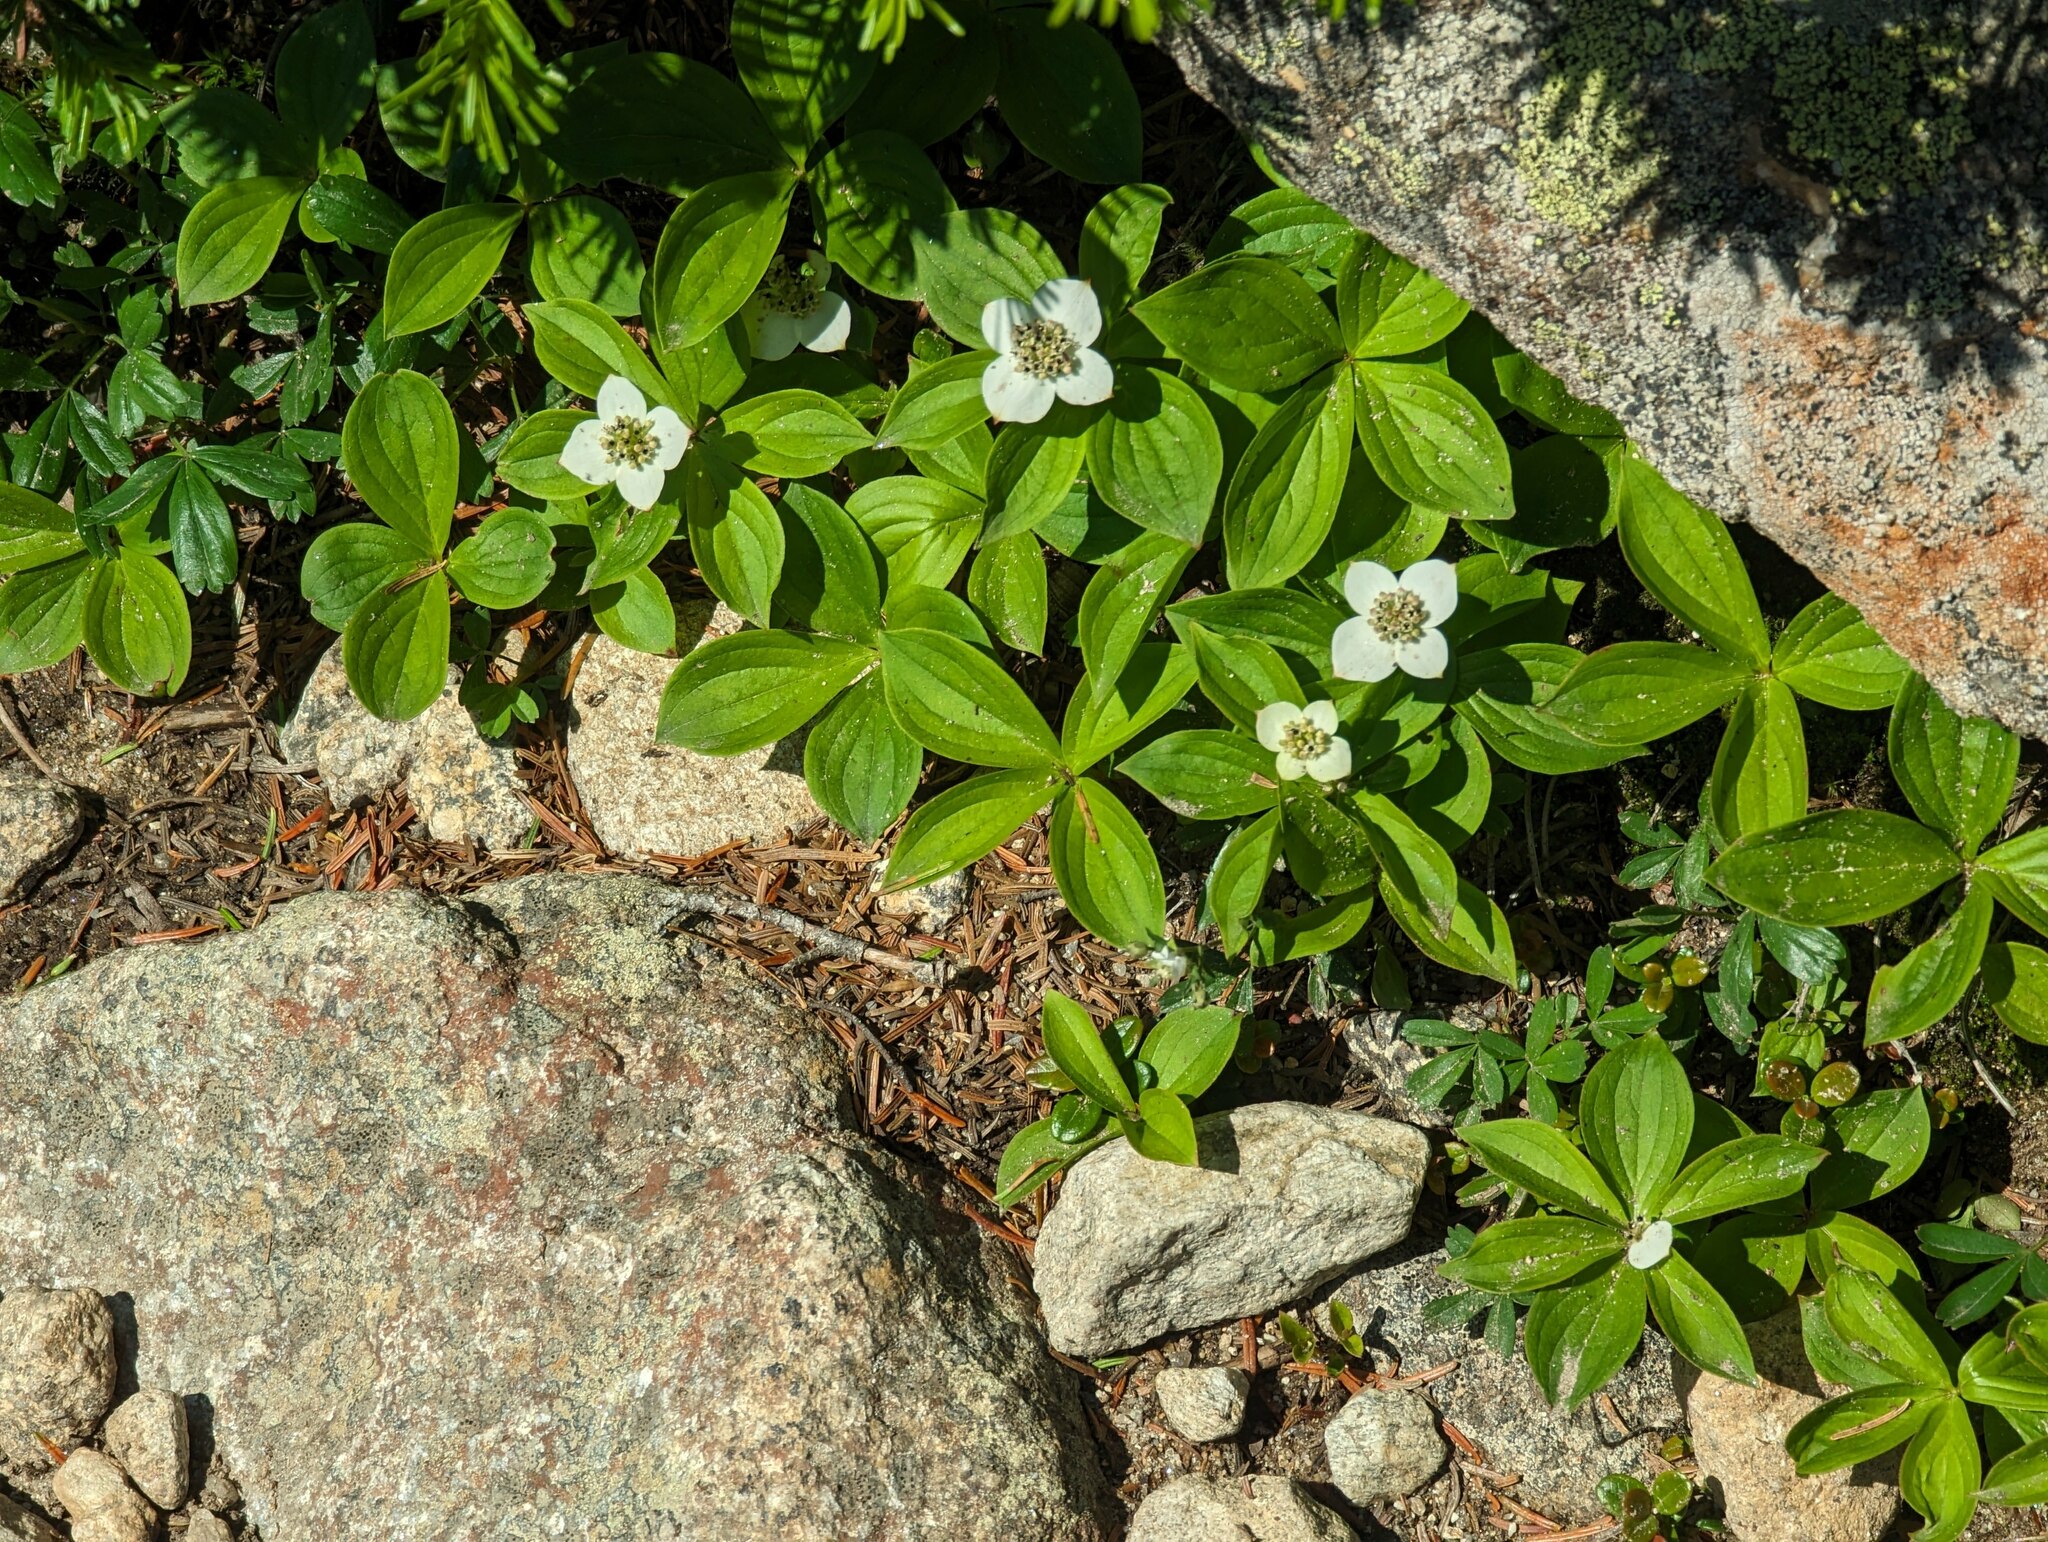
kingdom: Plantae
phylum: Tracheophyta
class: Magnoliopsida
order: Cornales
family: Cornaceae
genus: Cornus
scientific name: Cornus canadensis
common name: Creeping dogwood
